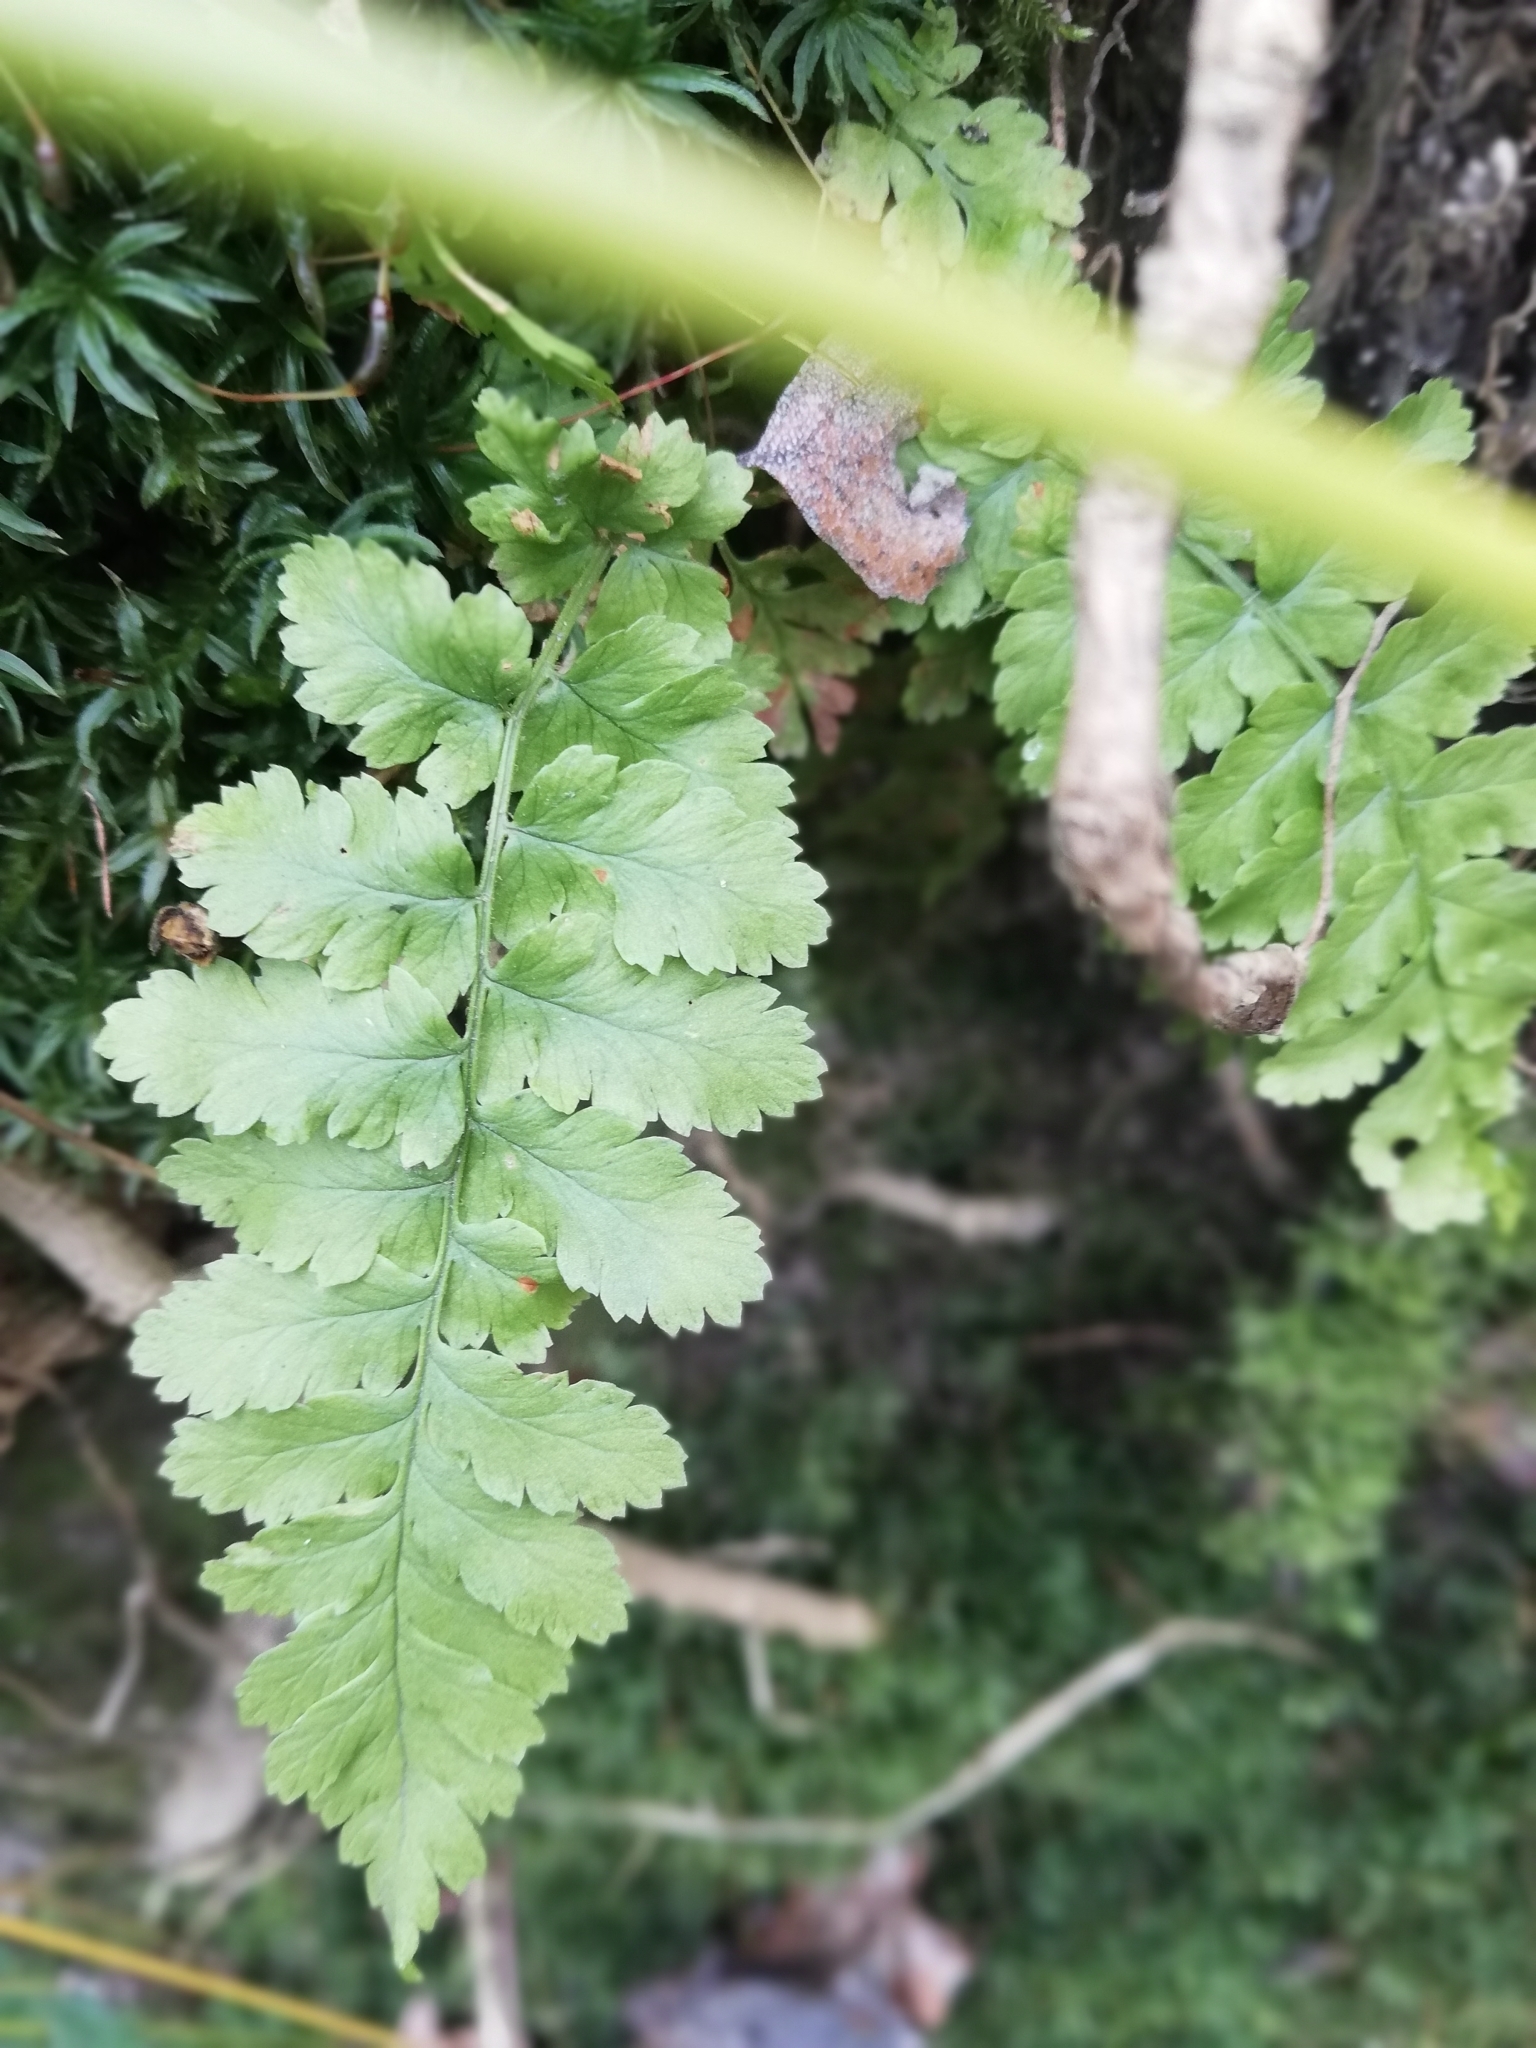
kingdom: Plantae
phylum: Tracheophyta
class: Polypodiopsida
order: Polypodiales
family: Dryopteridaceae
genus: Dryopteris
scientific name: Dryopteris carthusiana
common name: Narrow buckler-fern
